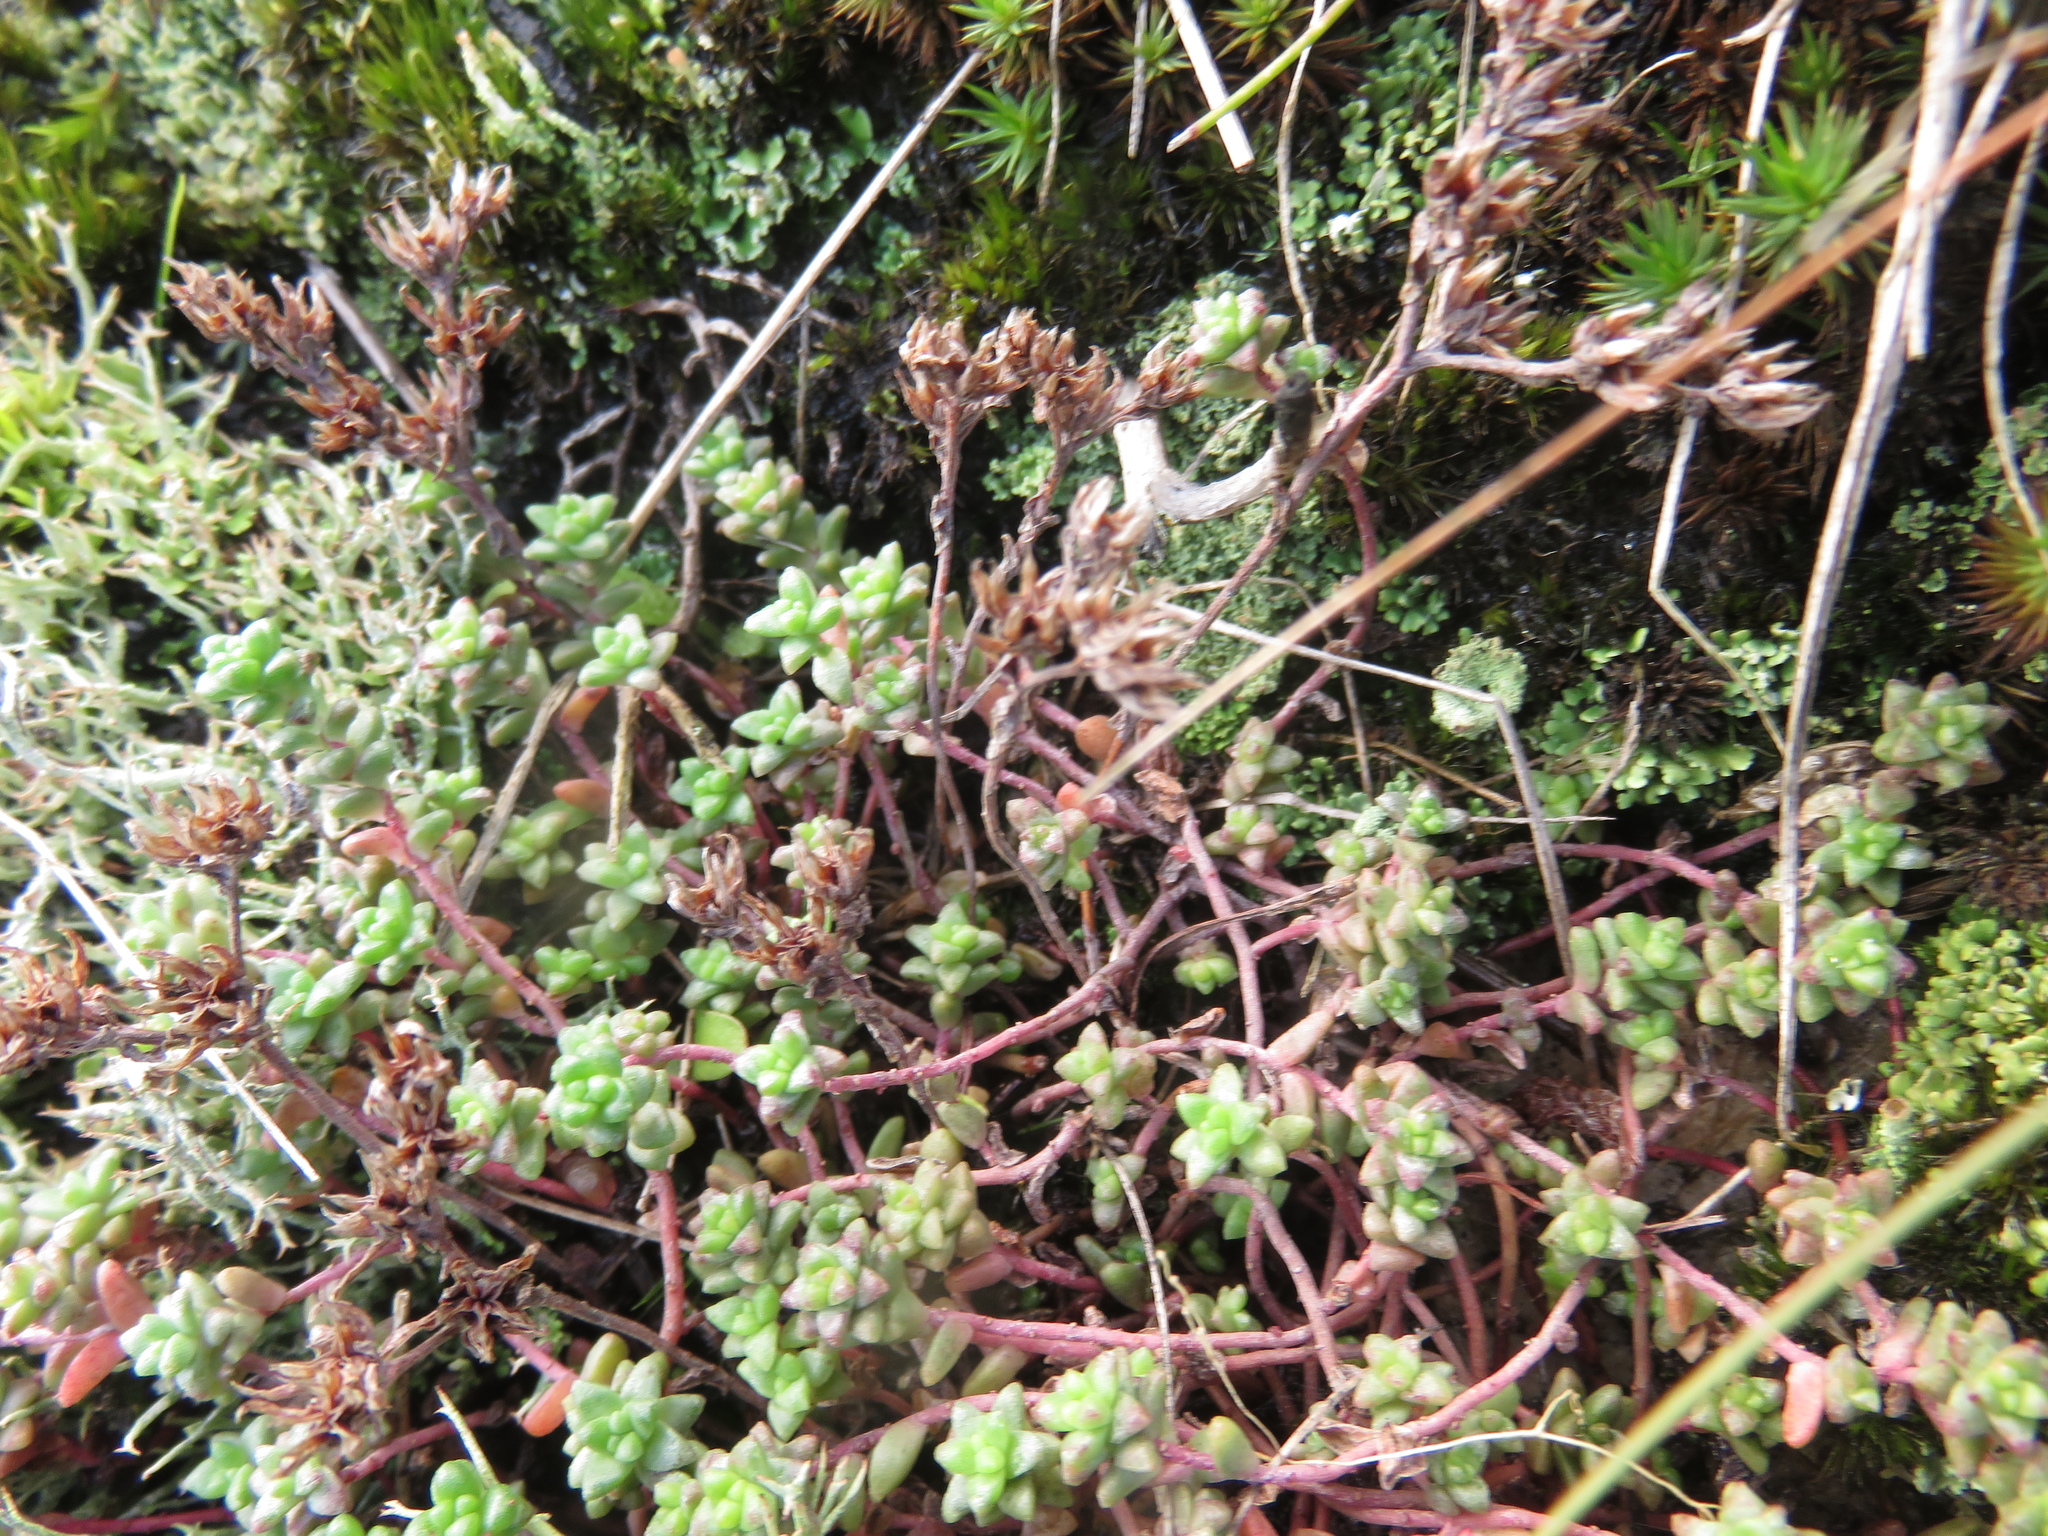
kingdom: Plantae
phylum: Tracheophyta
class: Magnoliopsida
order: Saxifragales
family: Crassulaceae
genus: Sedum
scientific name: Sedum anglicum
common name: English stonecrop
